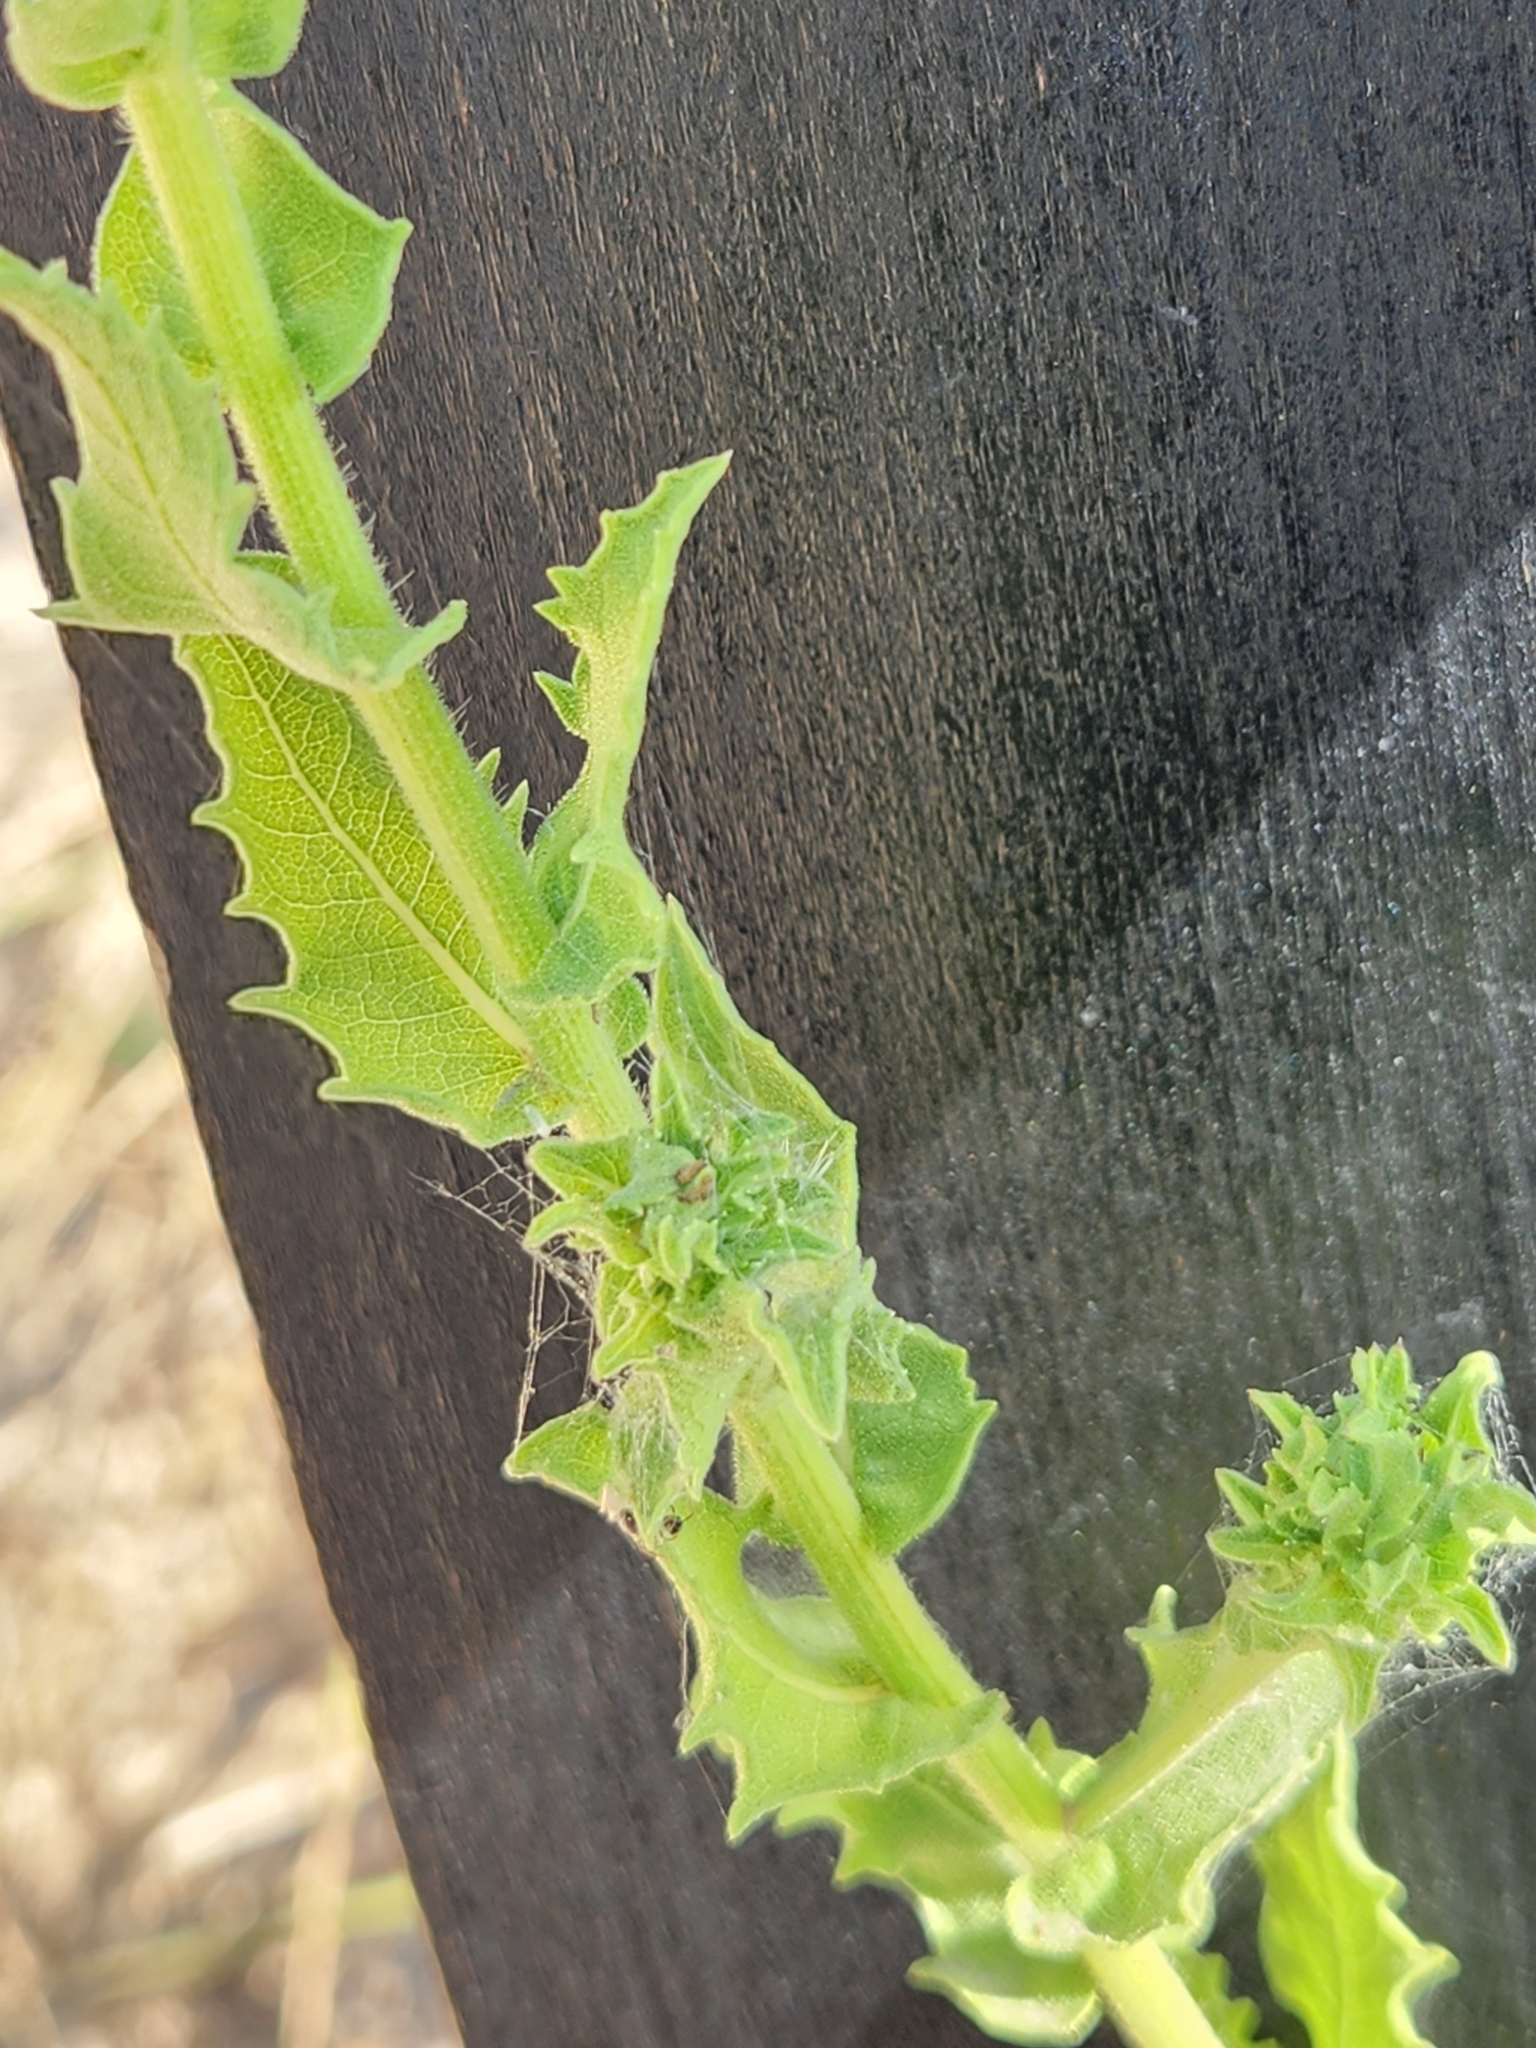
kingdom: Plantae
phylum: Tracheophyta
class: Magnoliopsida
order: Asterales
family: Asteraceae
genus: Heterotheca
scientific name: Heterotheca subaxillaris
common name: Camphorweed
